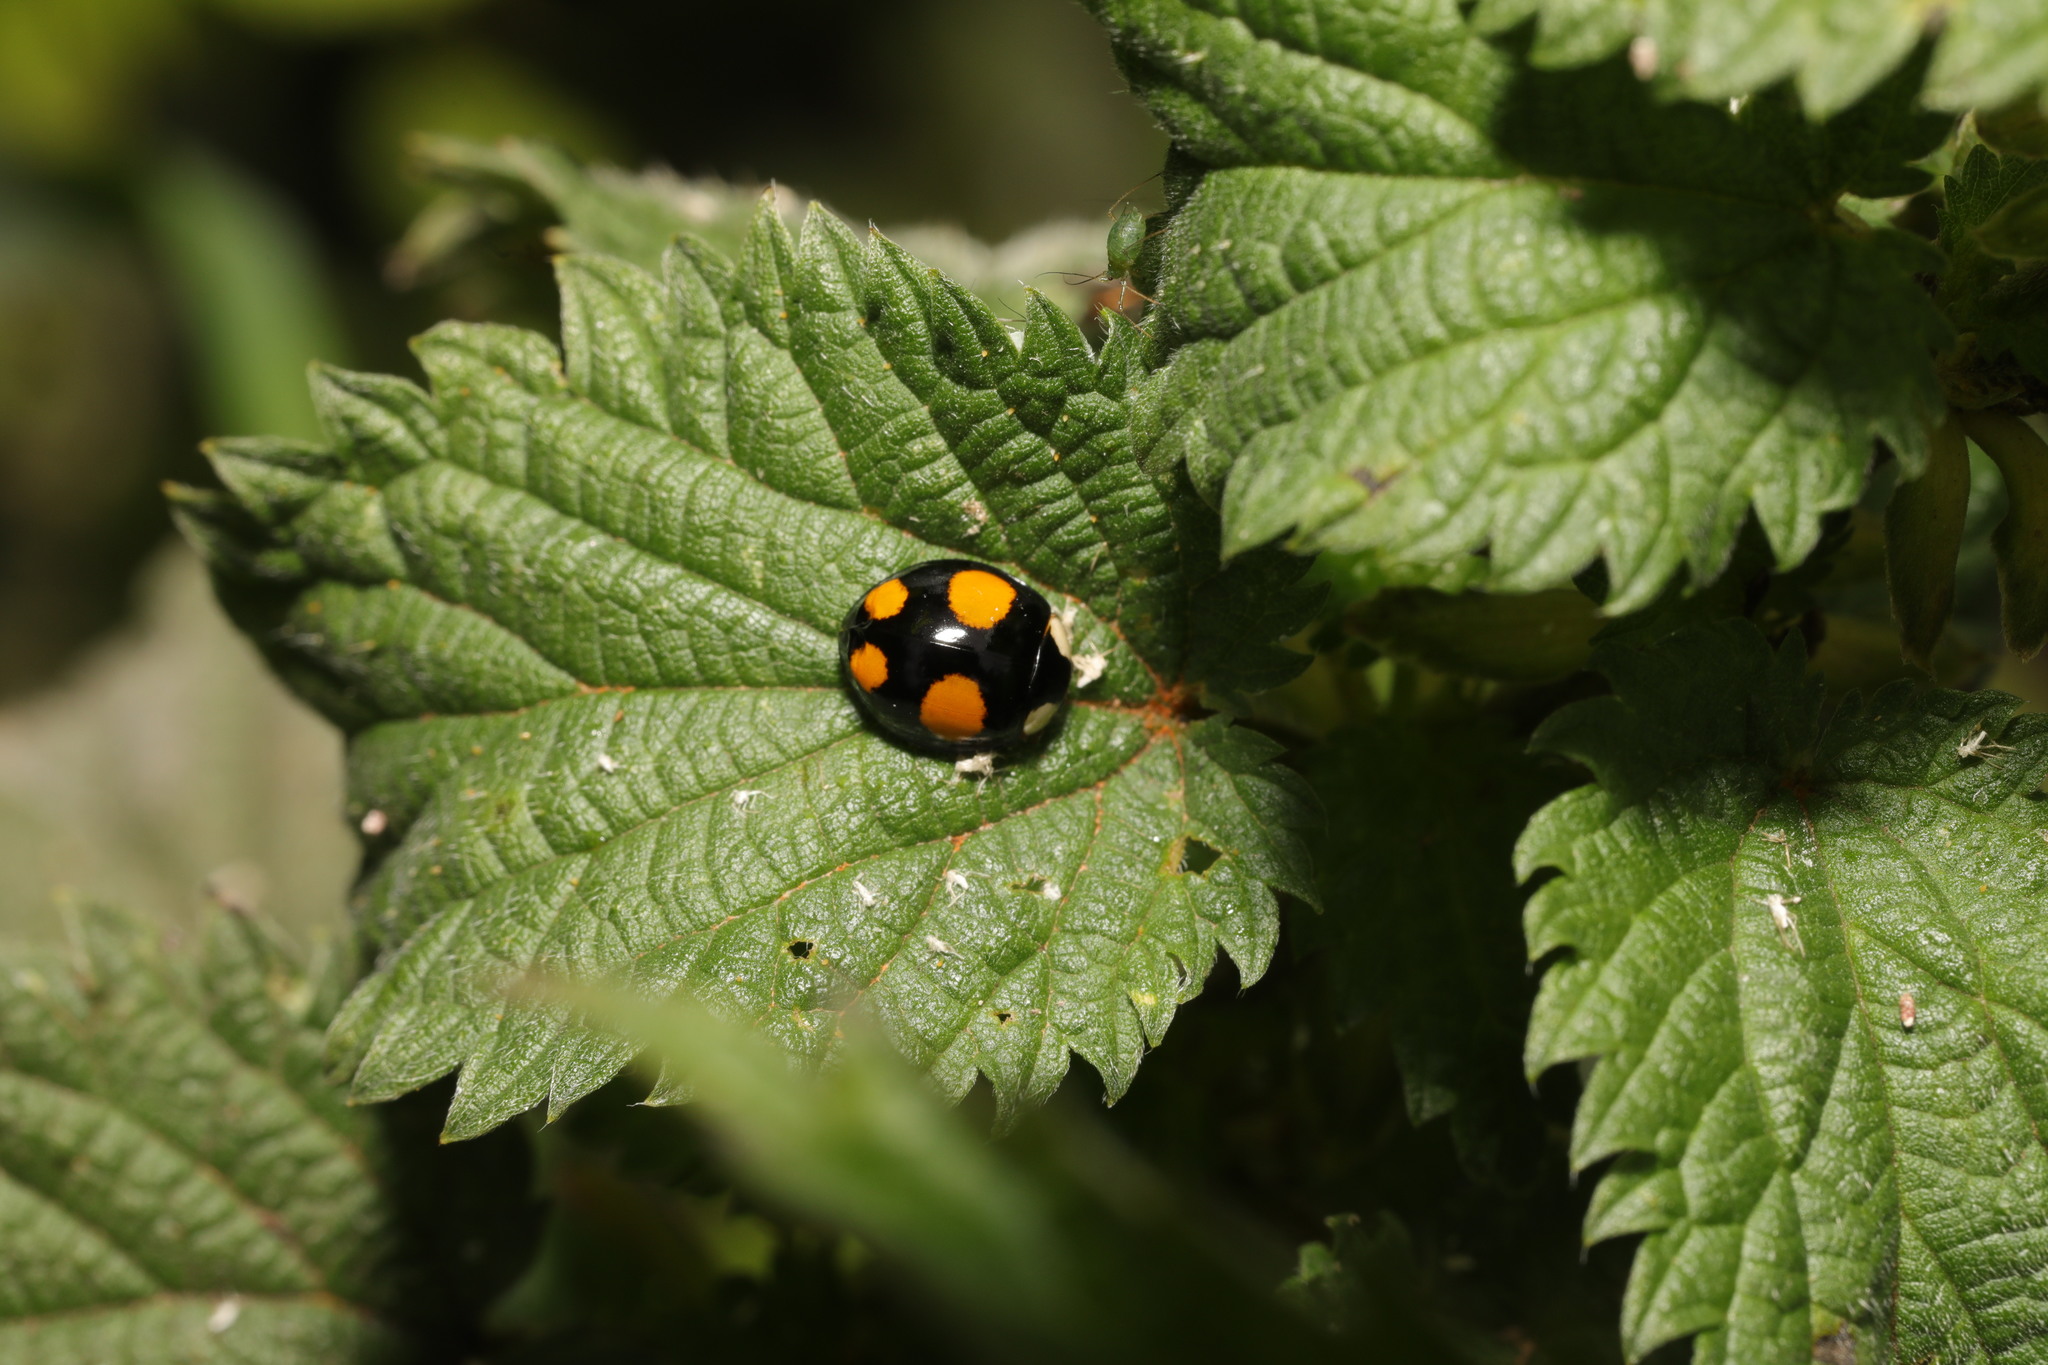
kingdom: Animalia
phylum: Arthropoda
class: Insecta
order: Coleoptera
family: Coccinellidae
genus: Harmonia
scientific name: Harmonia axyridis
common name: Harlequin ladybird
